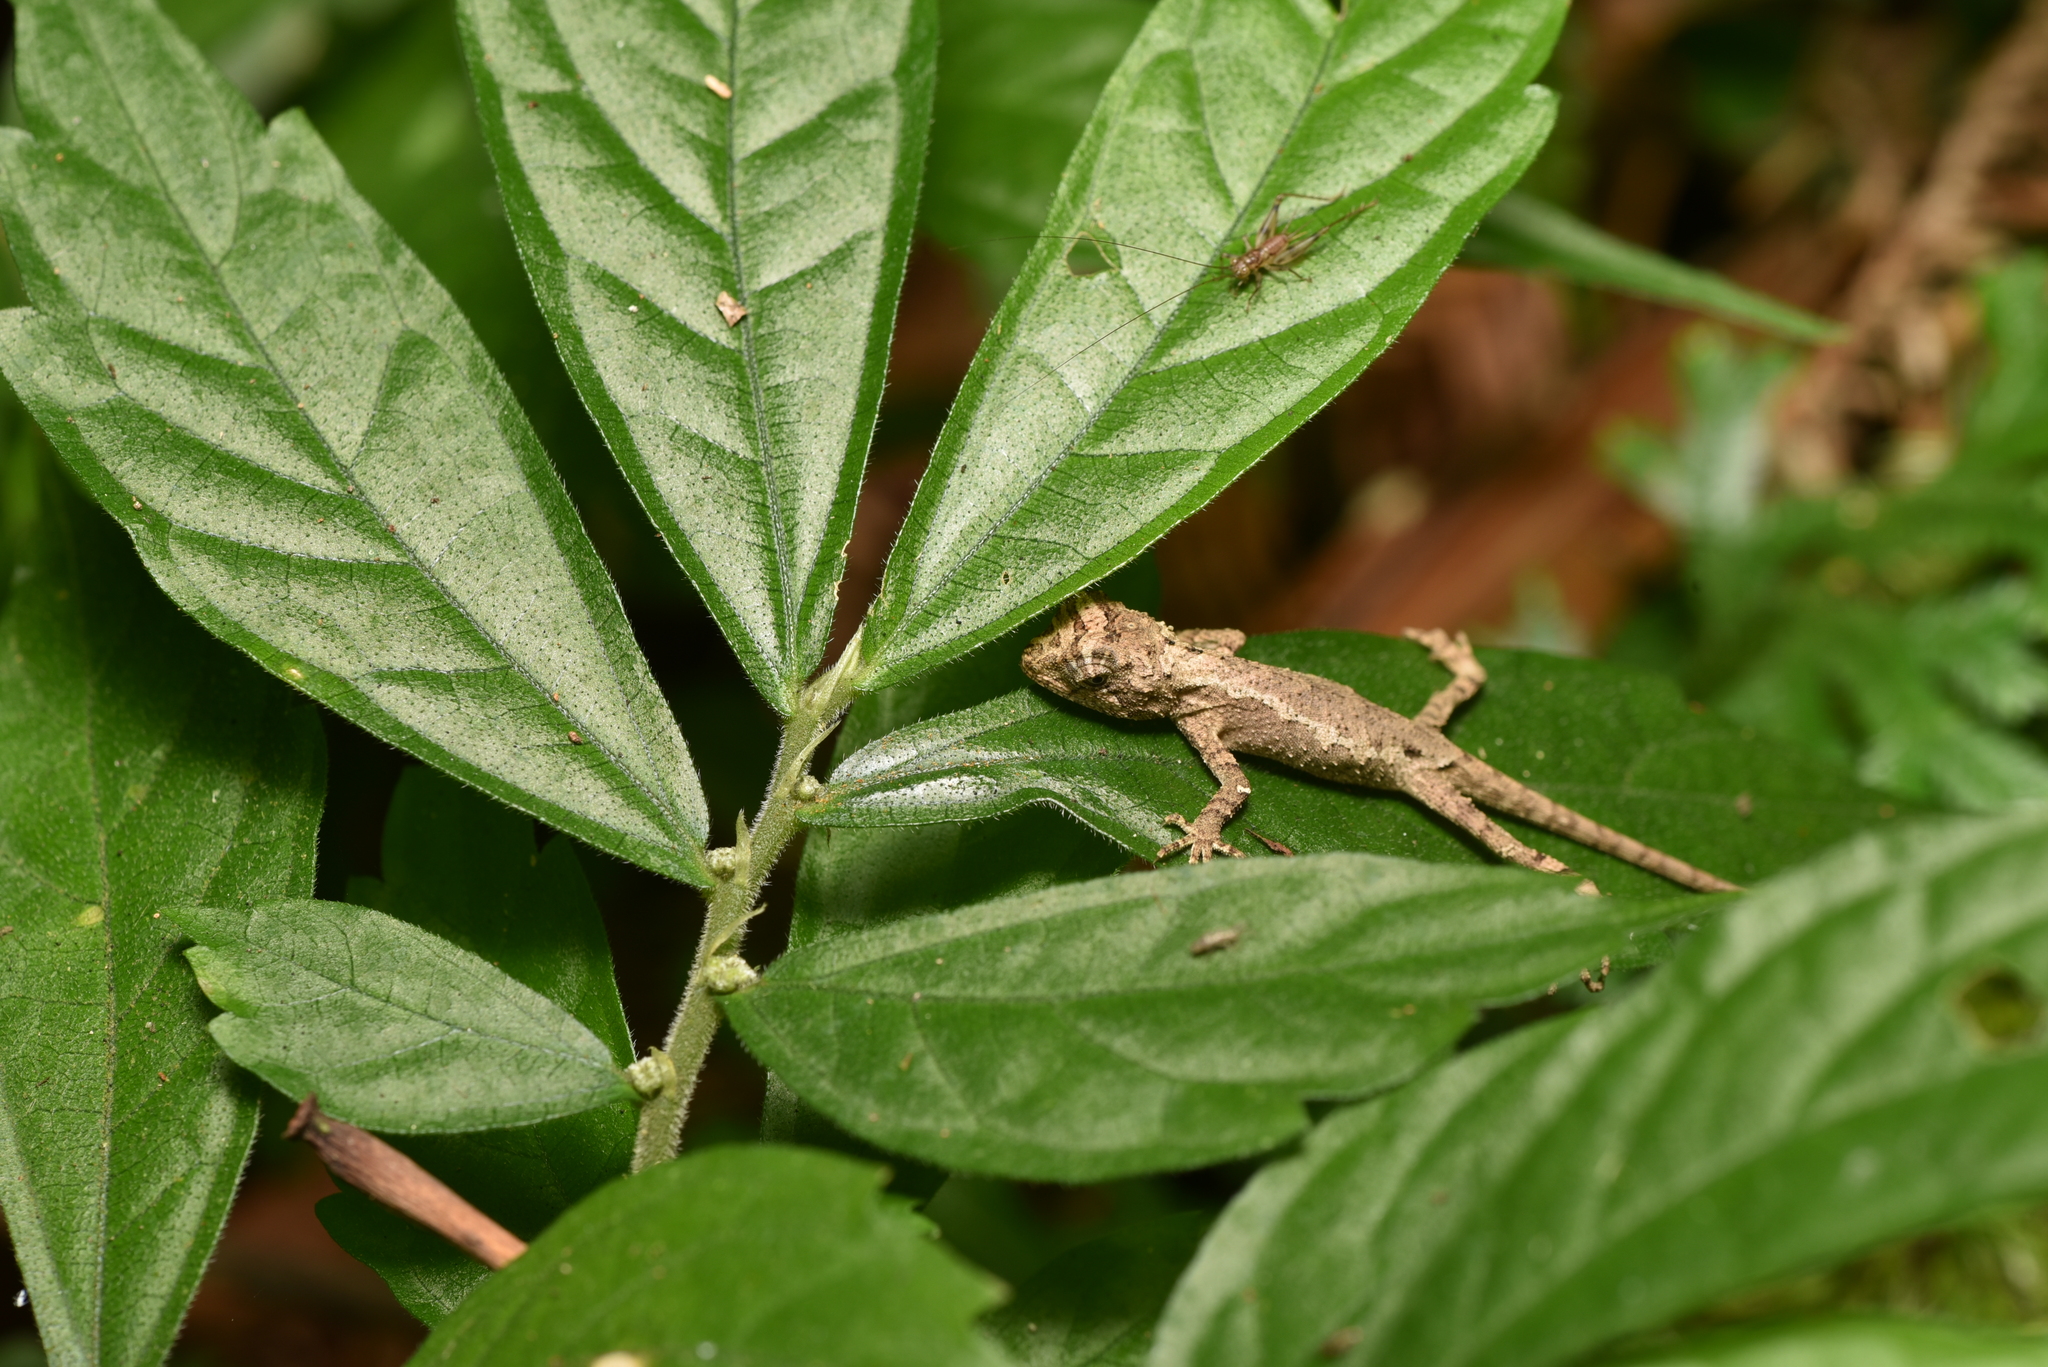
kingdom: Animalia
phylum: Chordata
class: Squamata
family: Agamidae
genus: Diploderma
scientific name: Diploderma swinhonis
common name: Taiwan japalure
